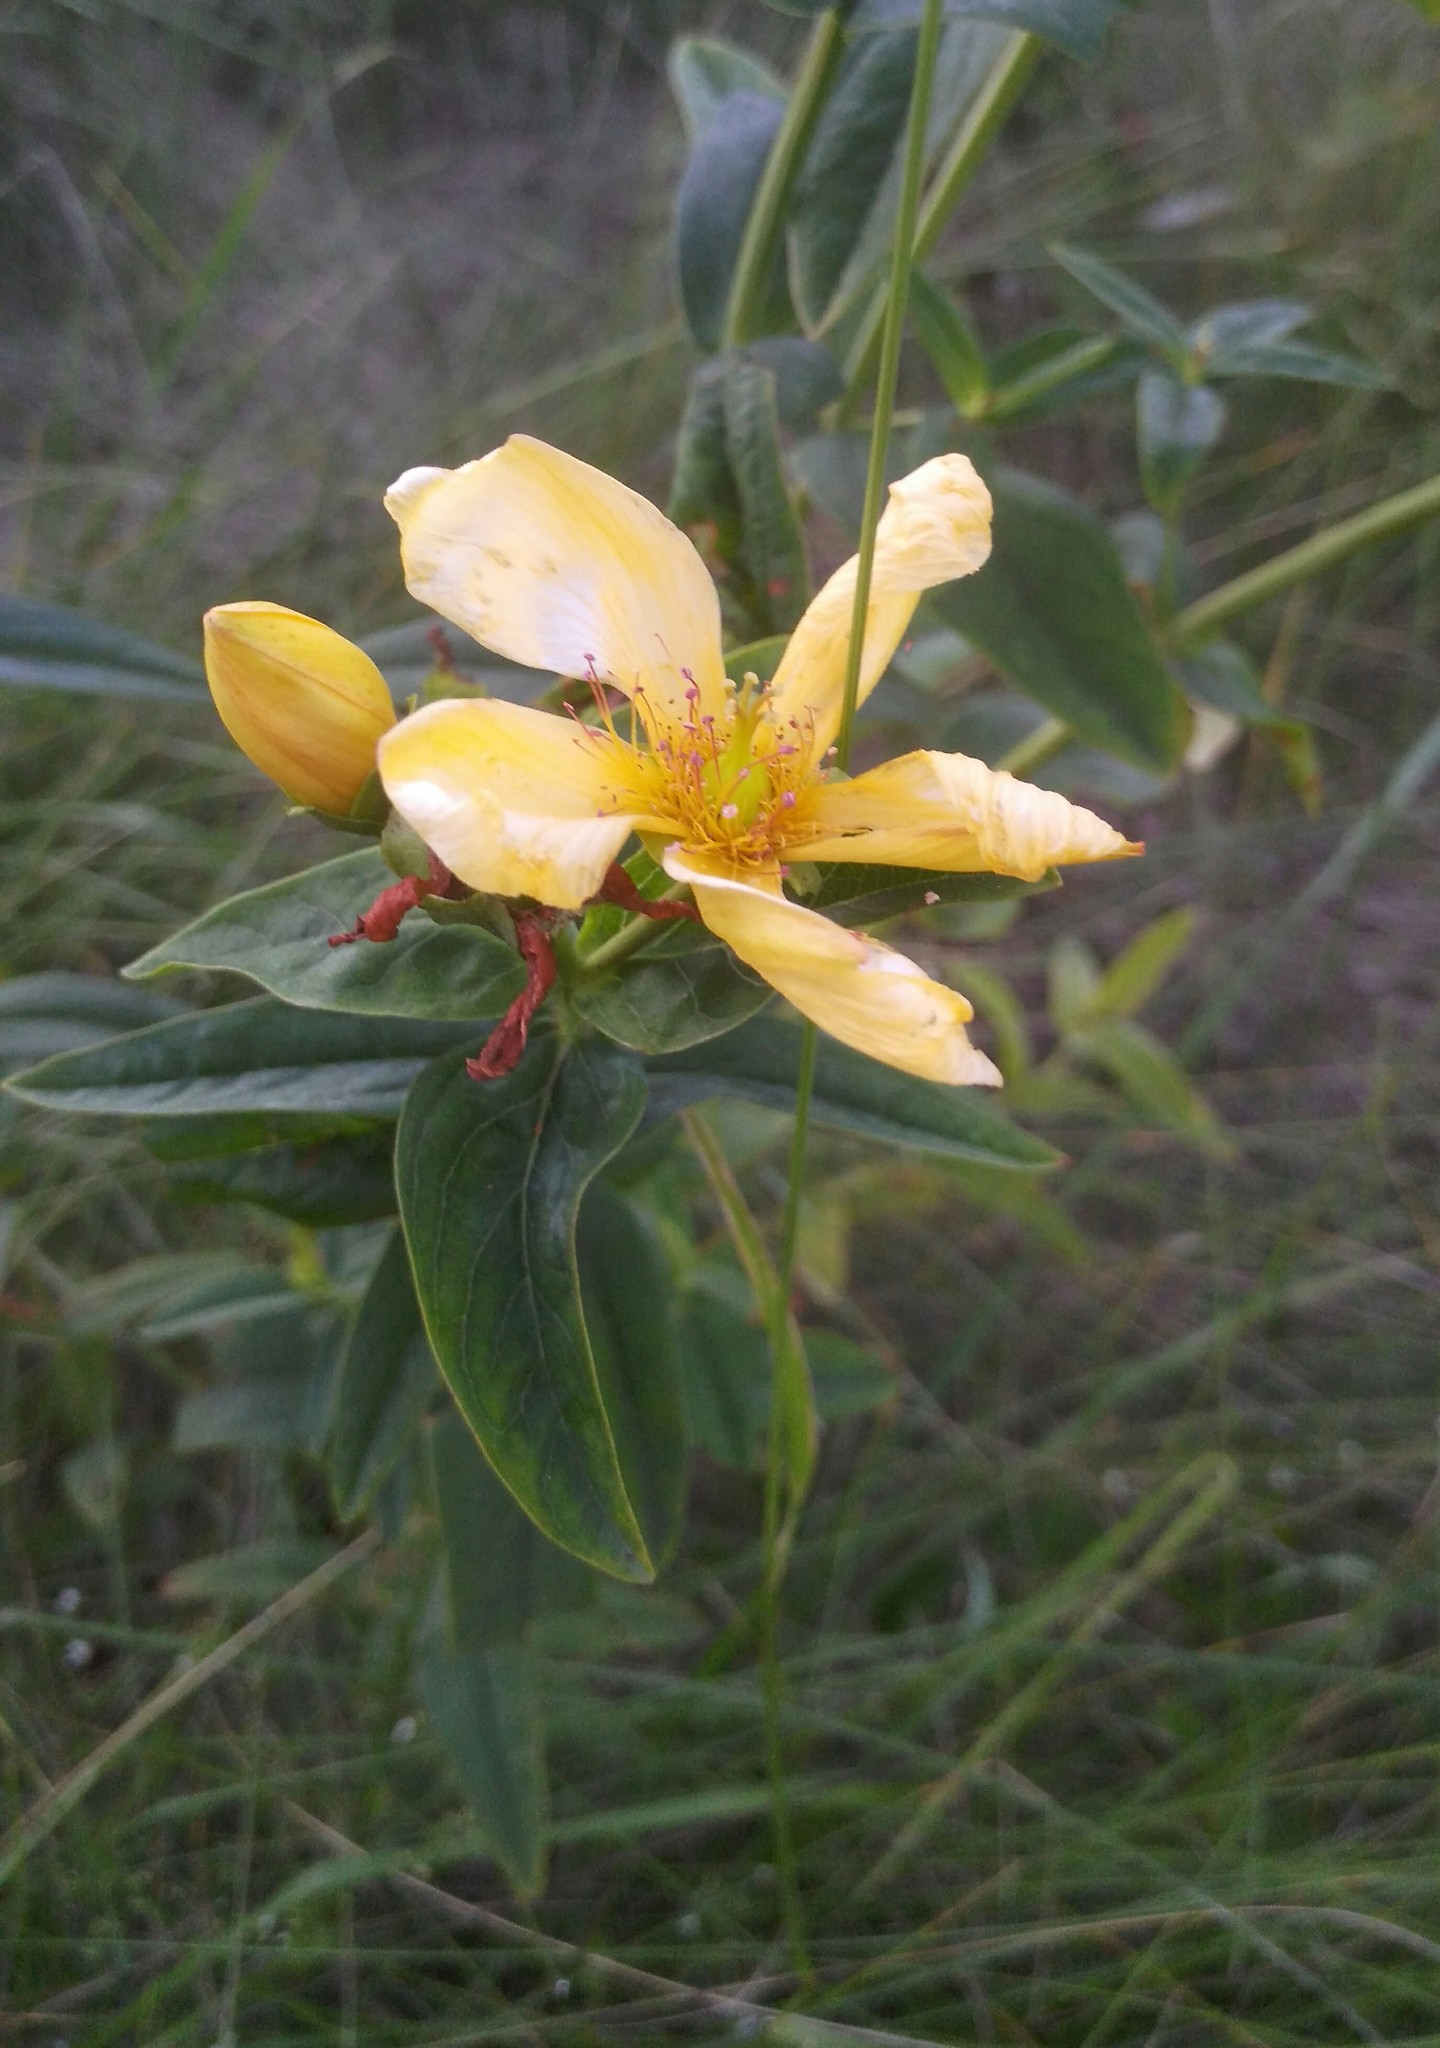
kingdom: Plantae
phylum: Tracheophyta
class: Magnoliopsida
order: Malpighiales
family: Hypericaceae
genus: Hypericum
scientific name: Hypericum ascyron
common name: Giant st. john's-wort
